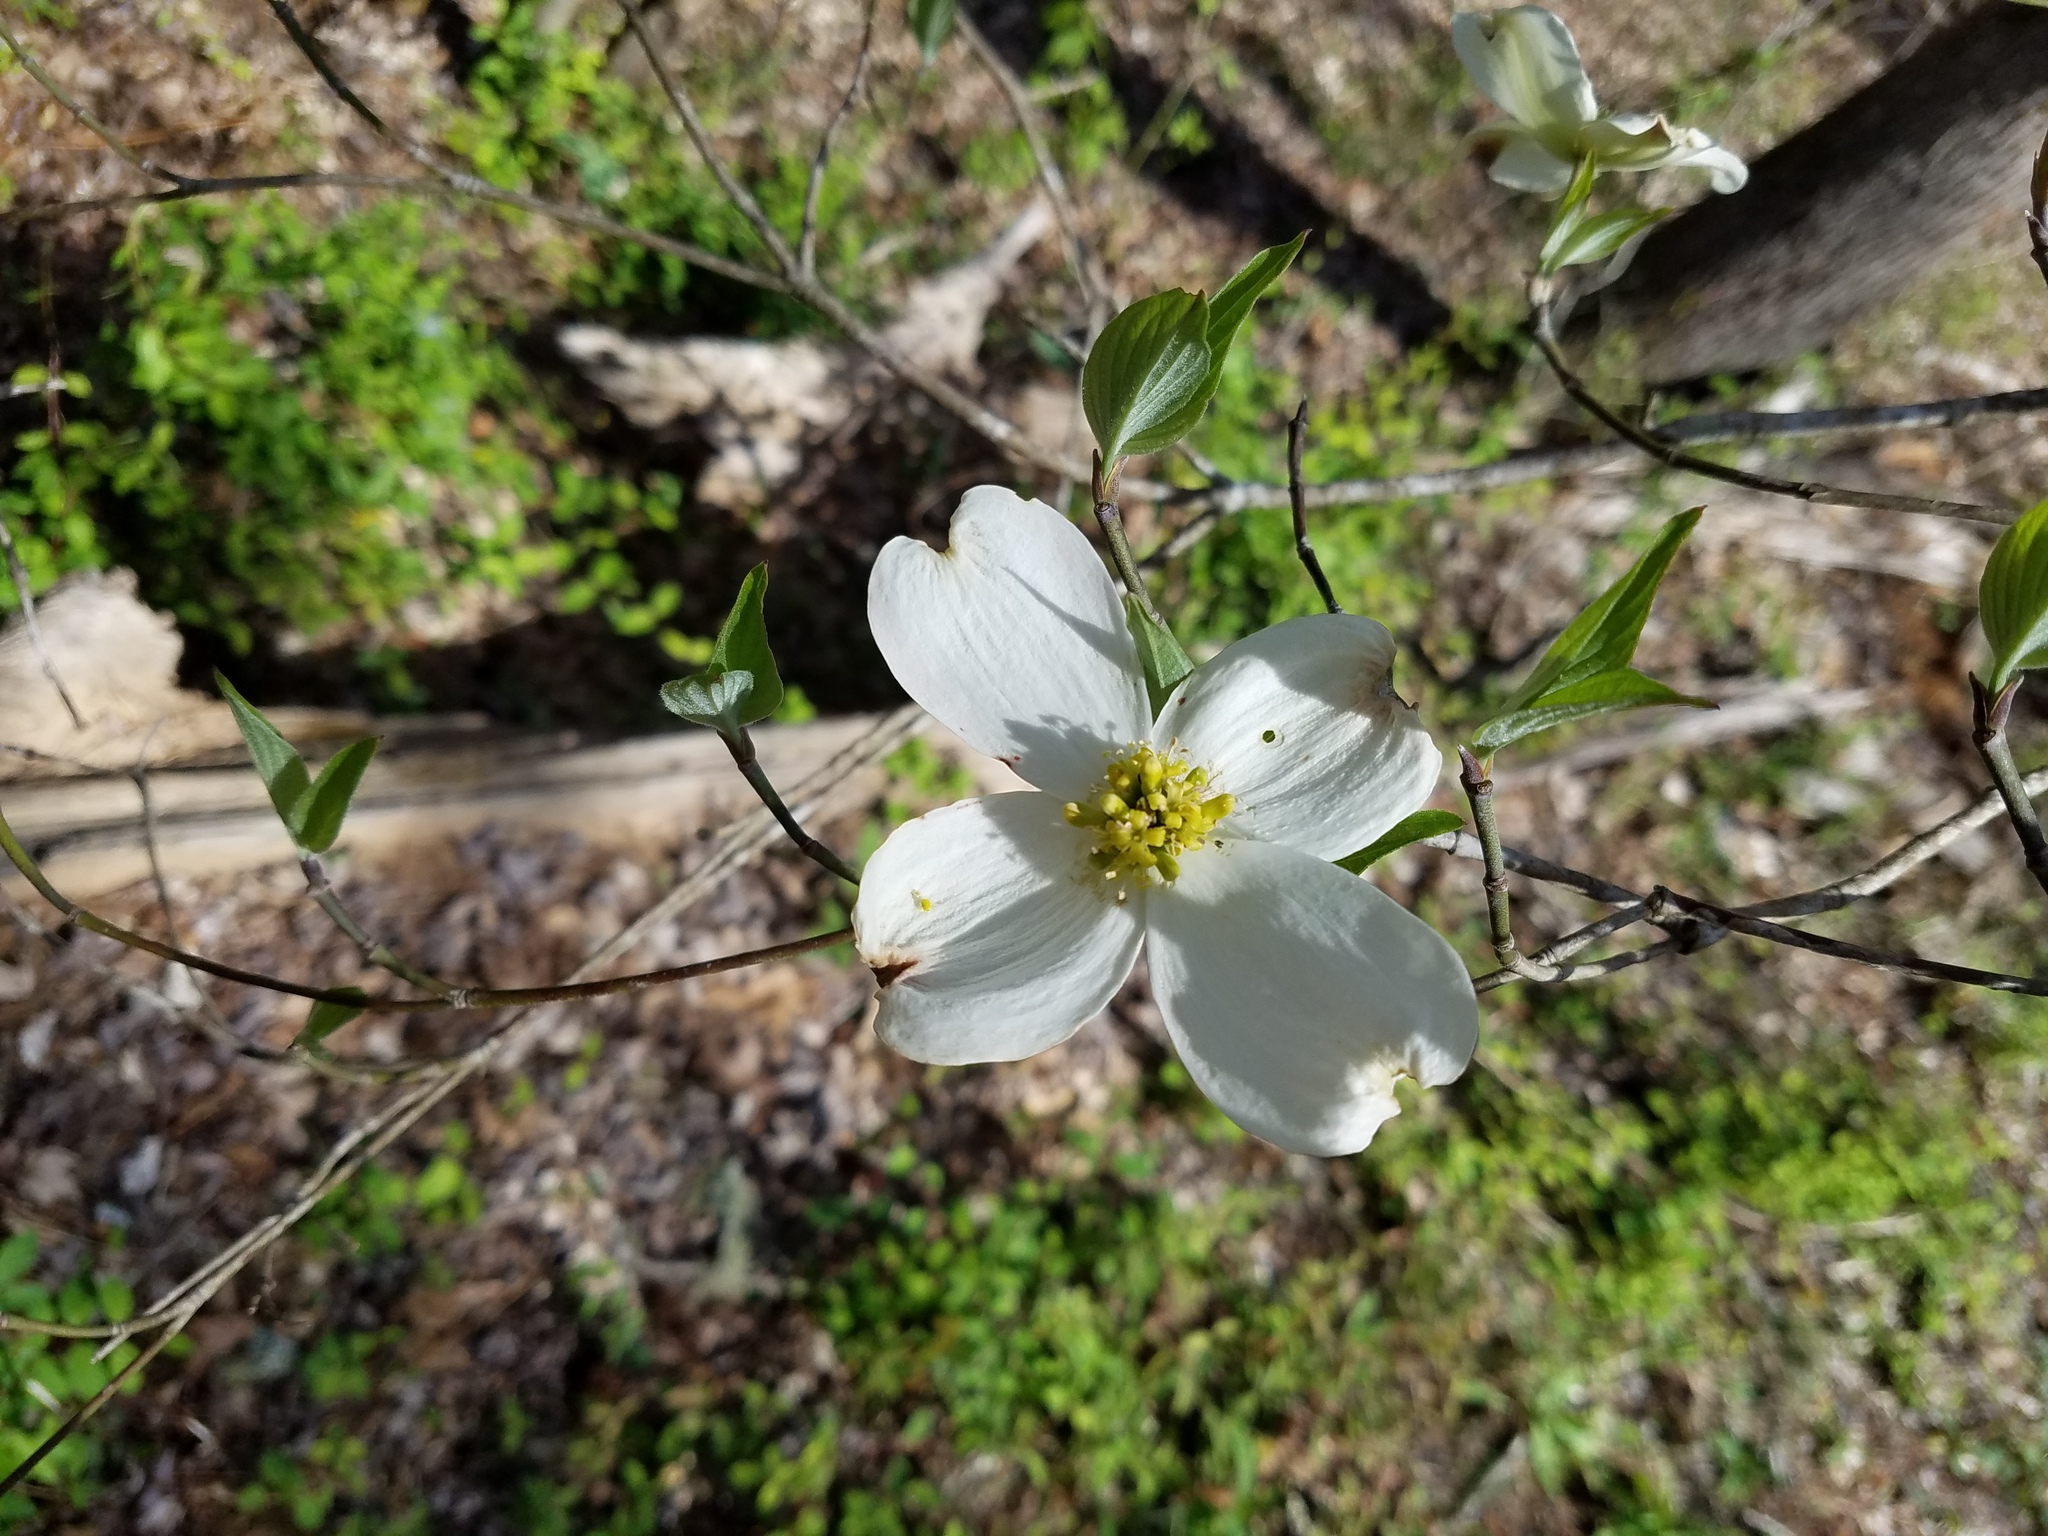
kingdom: Plantae
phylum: Tracheophyta
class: Magnoliopsida
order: Cornales
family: Cornaceae
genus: Cornus
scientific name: Cornus florida
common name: Flowering dogwood
